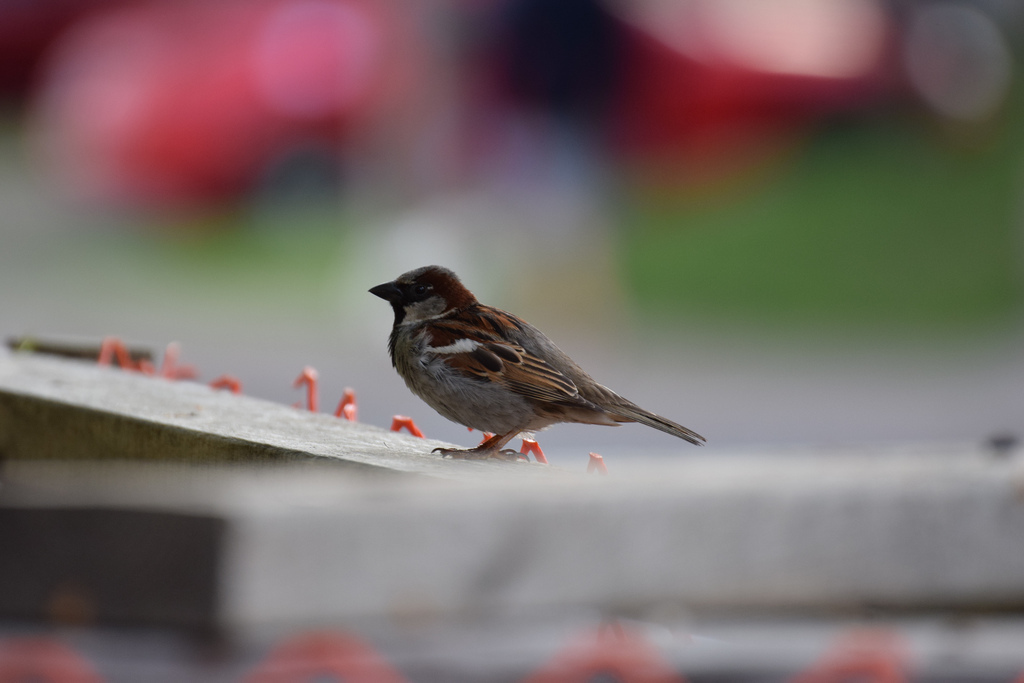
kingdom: Animalia
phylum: Chordata
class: Aves
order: Passeriformes
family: Passeridae
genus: Passer
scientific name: Passer domesticus
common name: House sparrow
